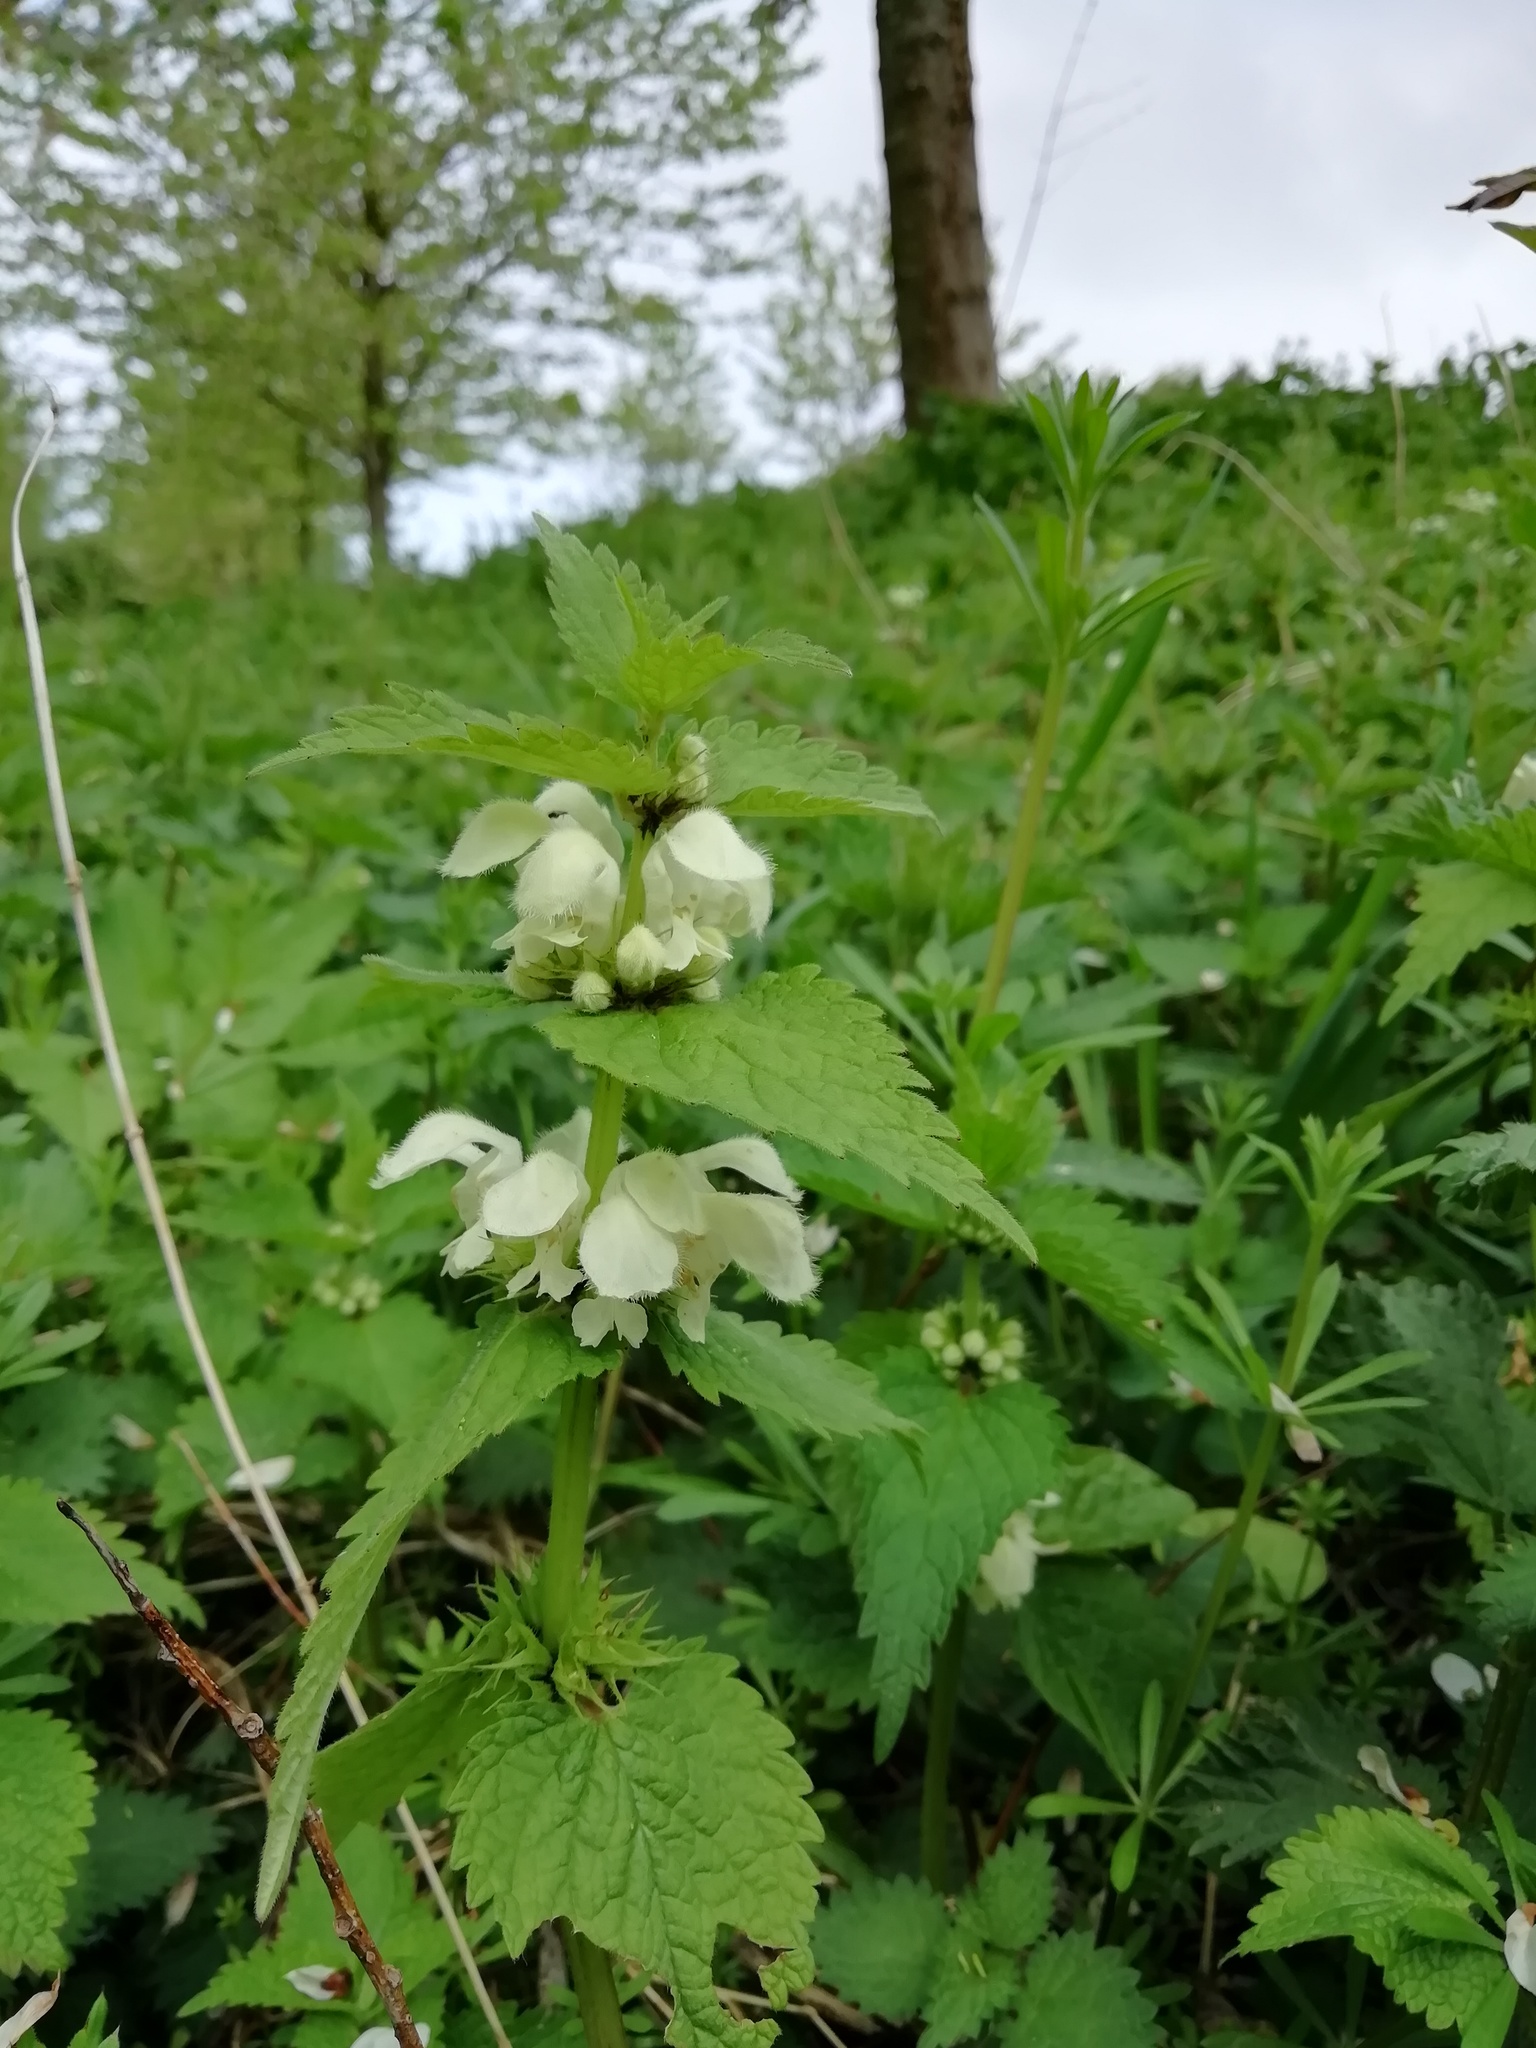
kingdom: Plantae
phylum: Tracheophyta
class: Magnoliopsida
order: Lamiales
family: Lamiaceae
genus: Lamium
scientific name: Lamium album
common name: White dead-nettle
